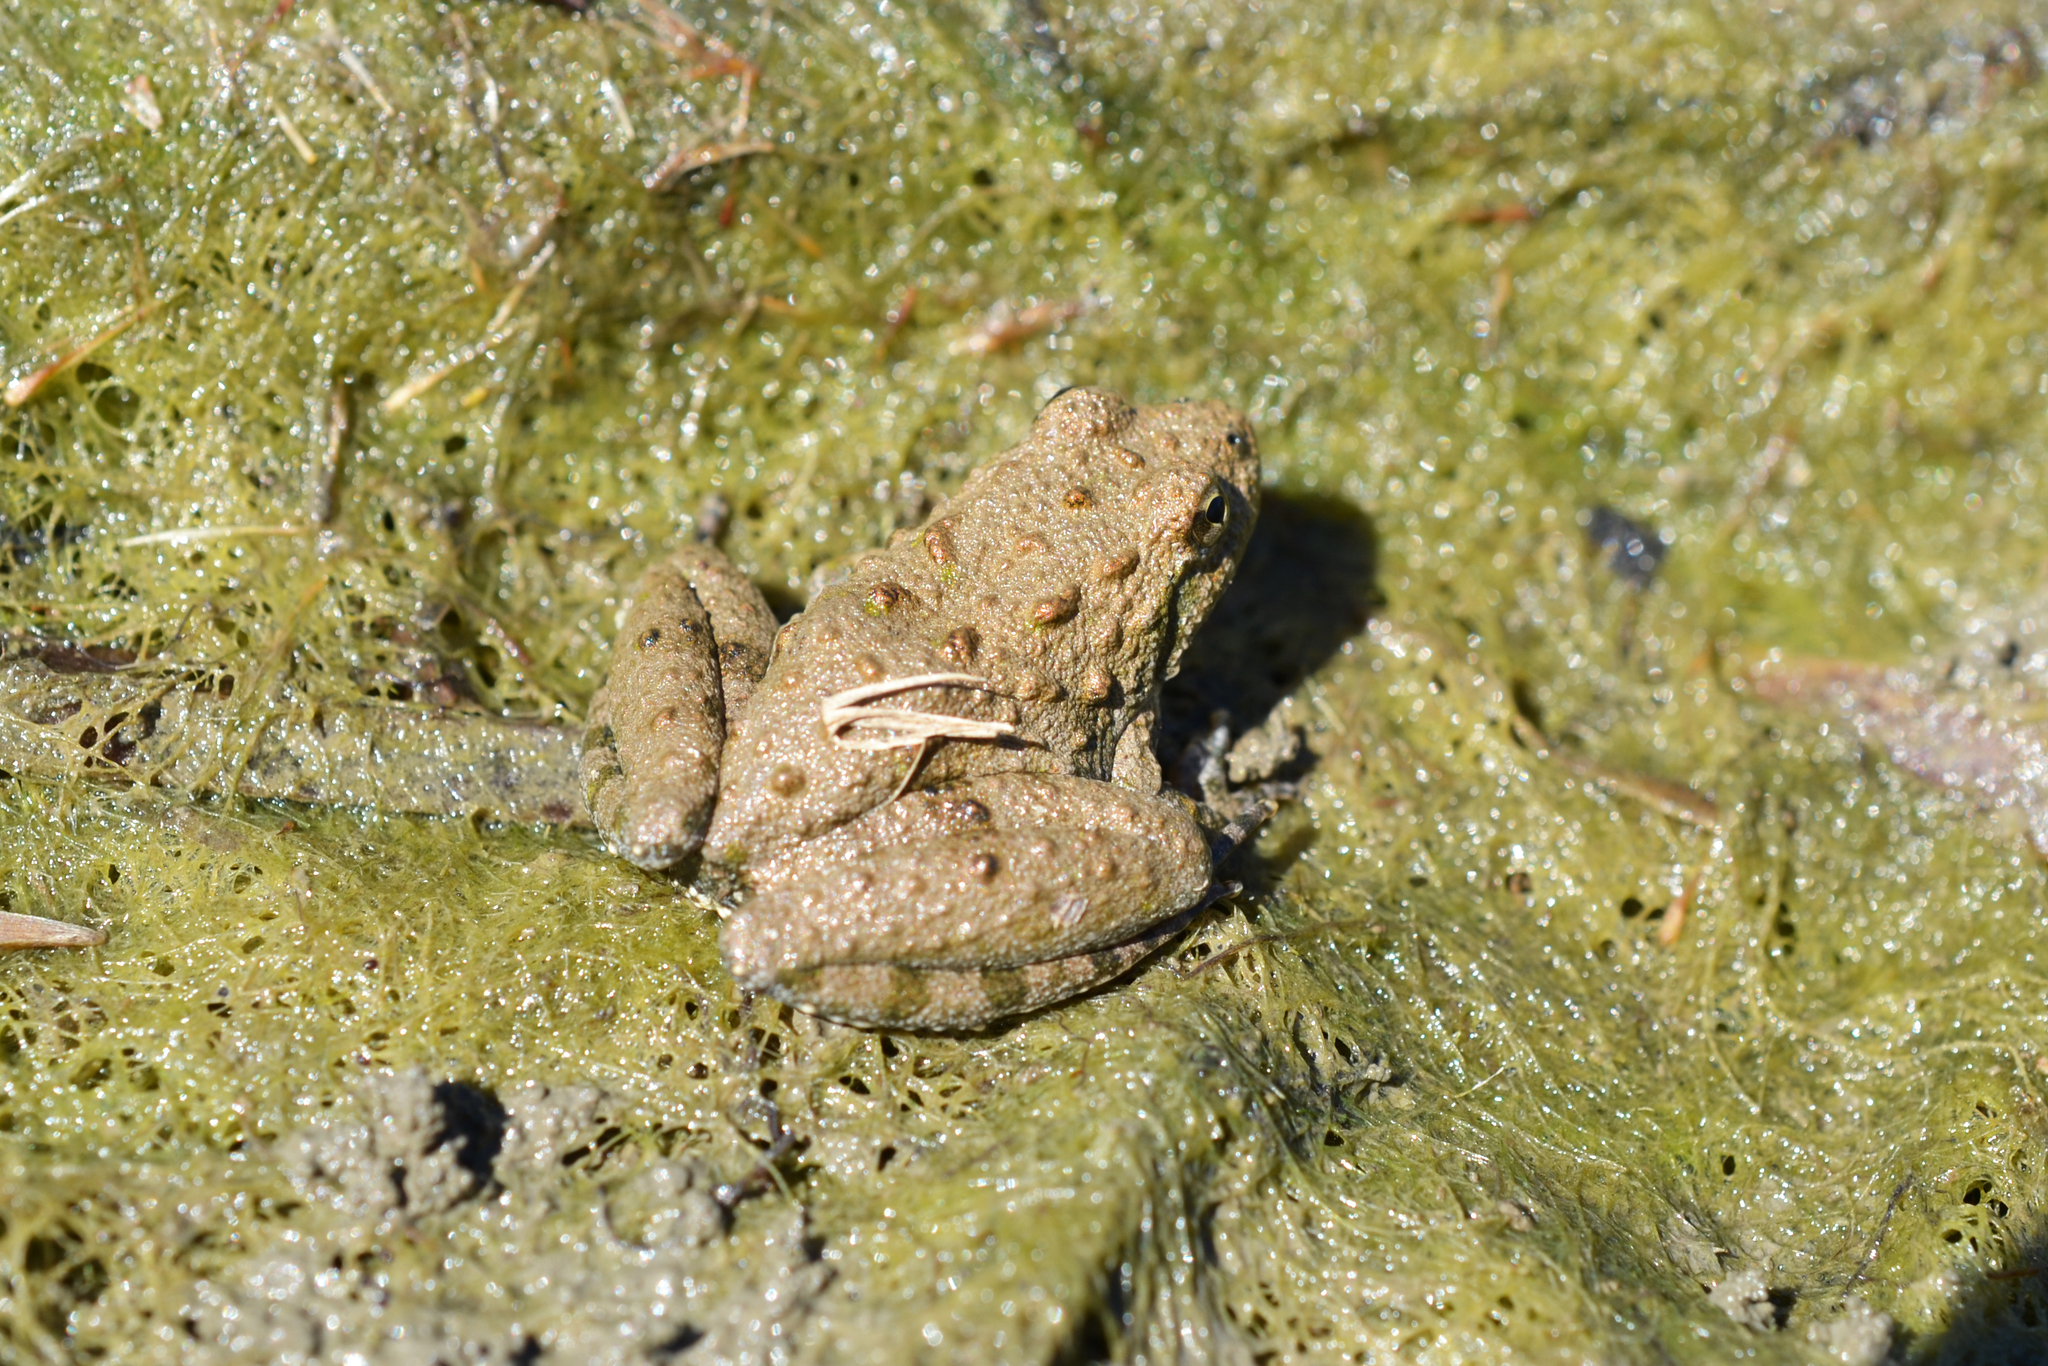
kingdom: Animalia
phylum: Chordata
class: Amphibia
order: Anura
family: Hylidae
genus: Acris
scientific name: Acris blanchardi
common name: Blanchard's cricket frog
